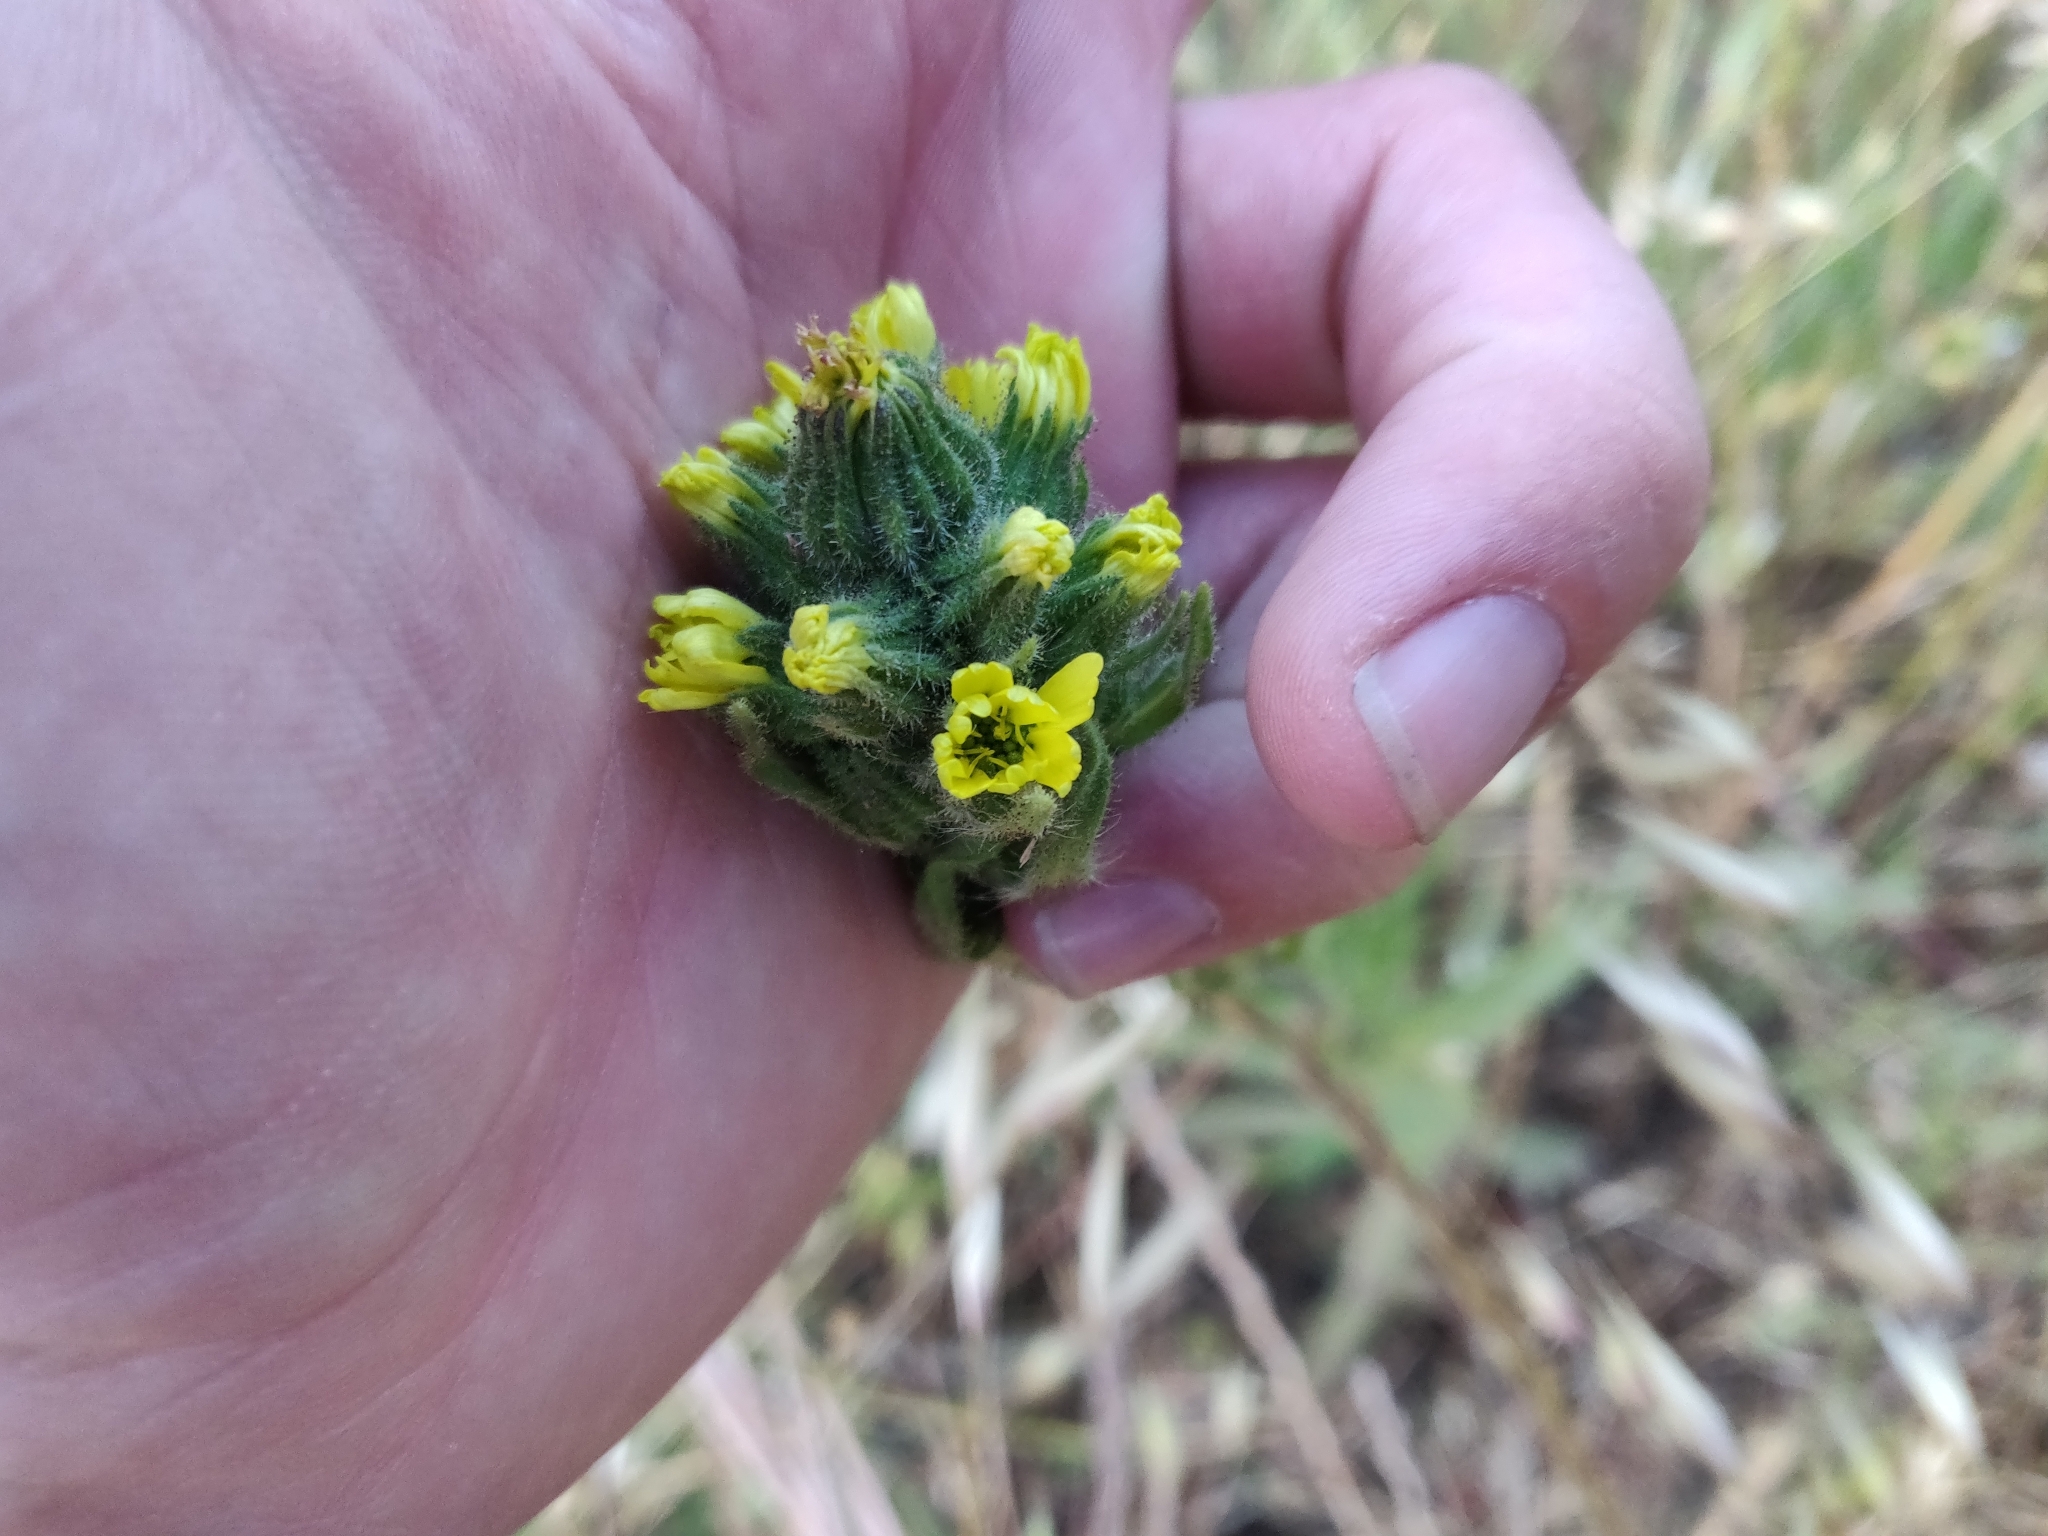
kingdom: Plantae
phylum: Tracheophyta
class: Magnoliopsida
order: Asterales
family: Asteraceae
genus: Madia
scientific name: Madia sativa
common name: Coast tarweed
